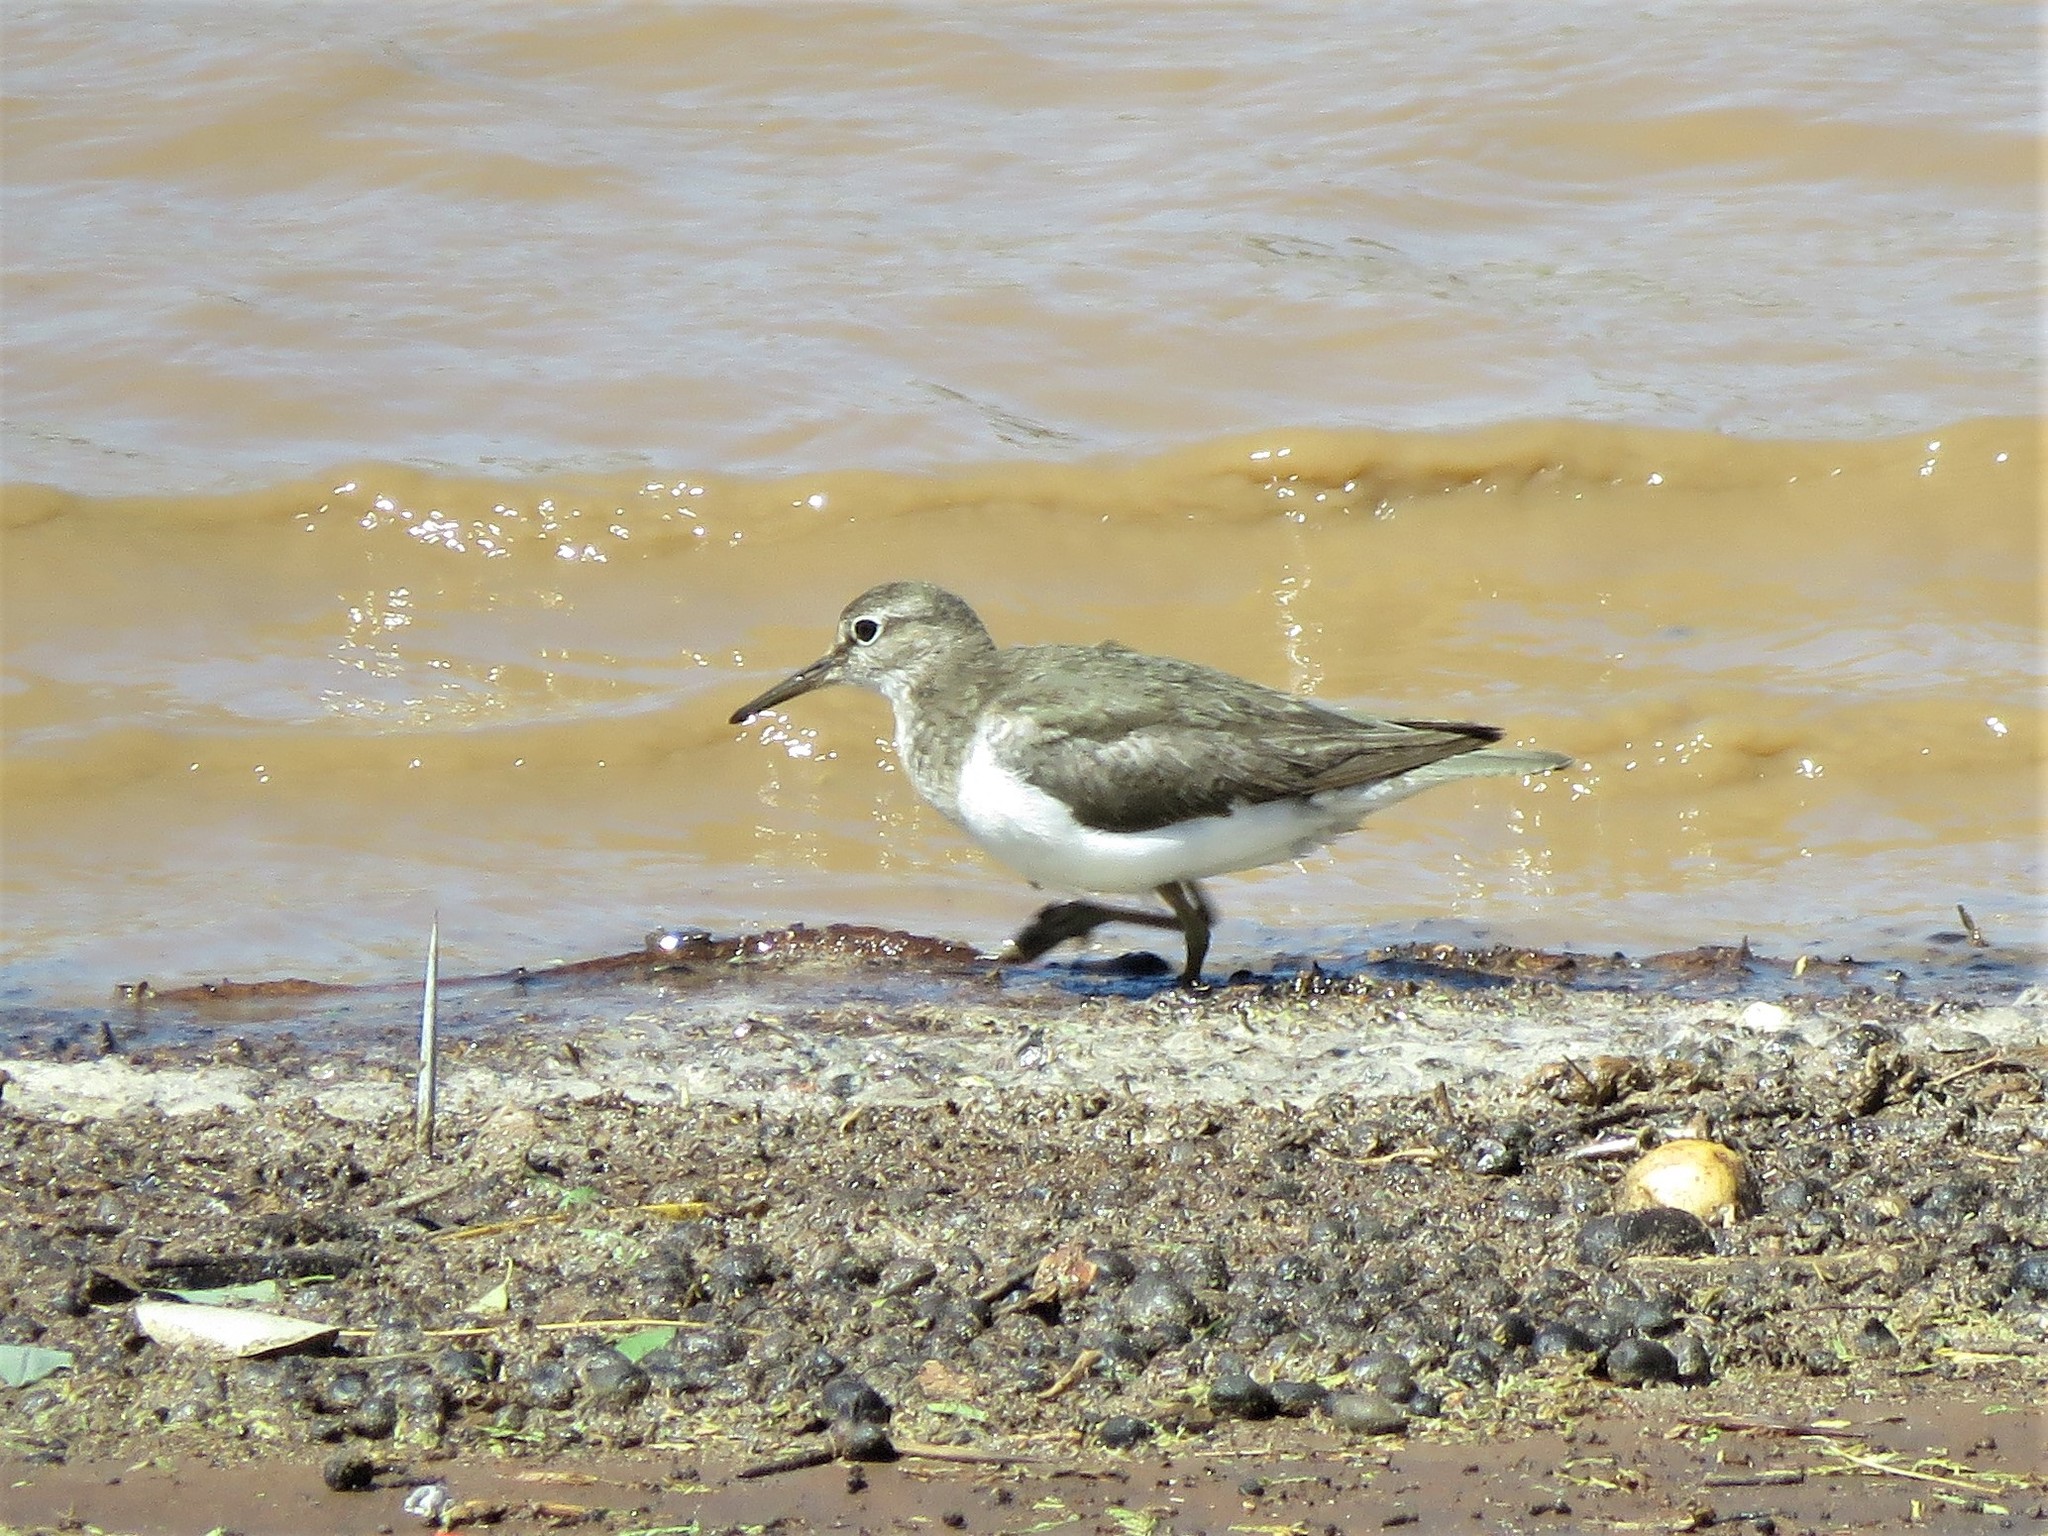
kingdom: Animalia
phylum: Chordata
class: Aves
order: Charadriiformes
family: Scolopacidae
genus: Actitis
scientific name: Actitis hypoleucos
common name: Common sandpiper
